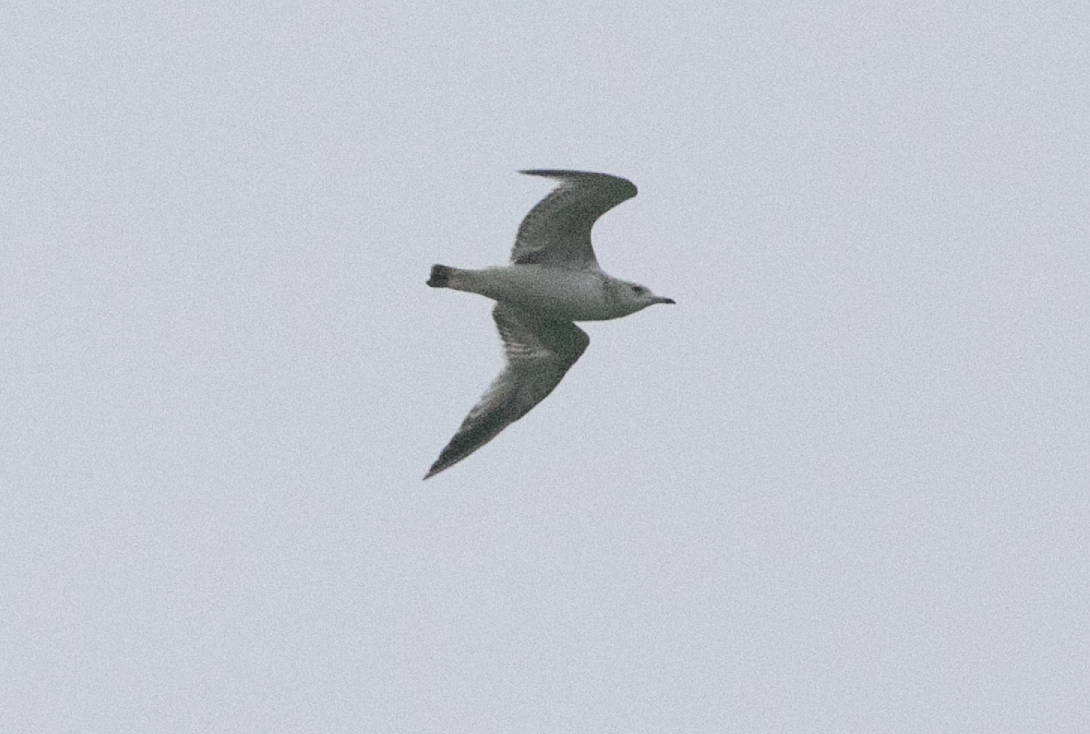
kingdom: Animalia
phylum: Chordata
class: Aves
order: Charadriiformes
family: Laridae
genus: Larus
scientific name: Larus canus
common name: Mew gull
